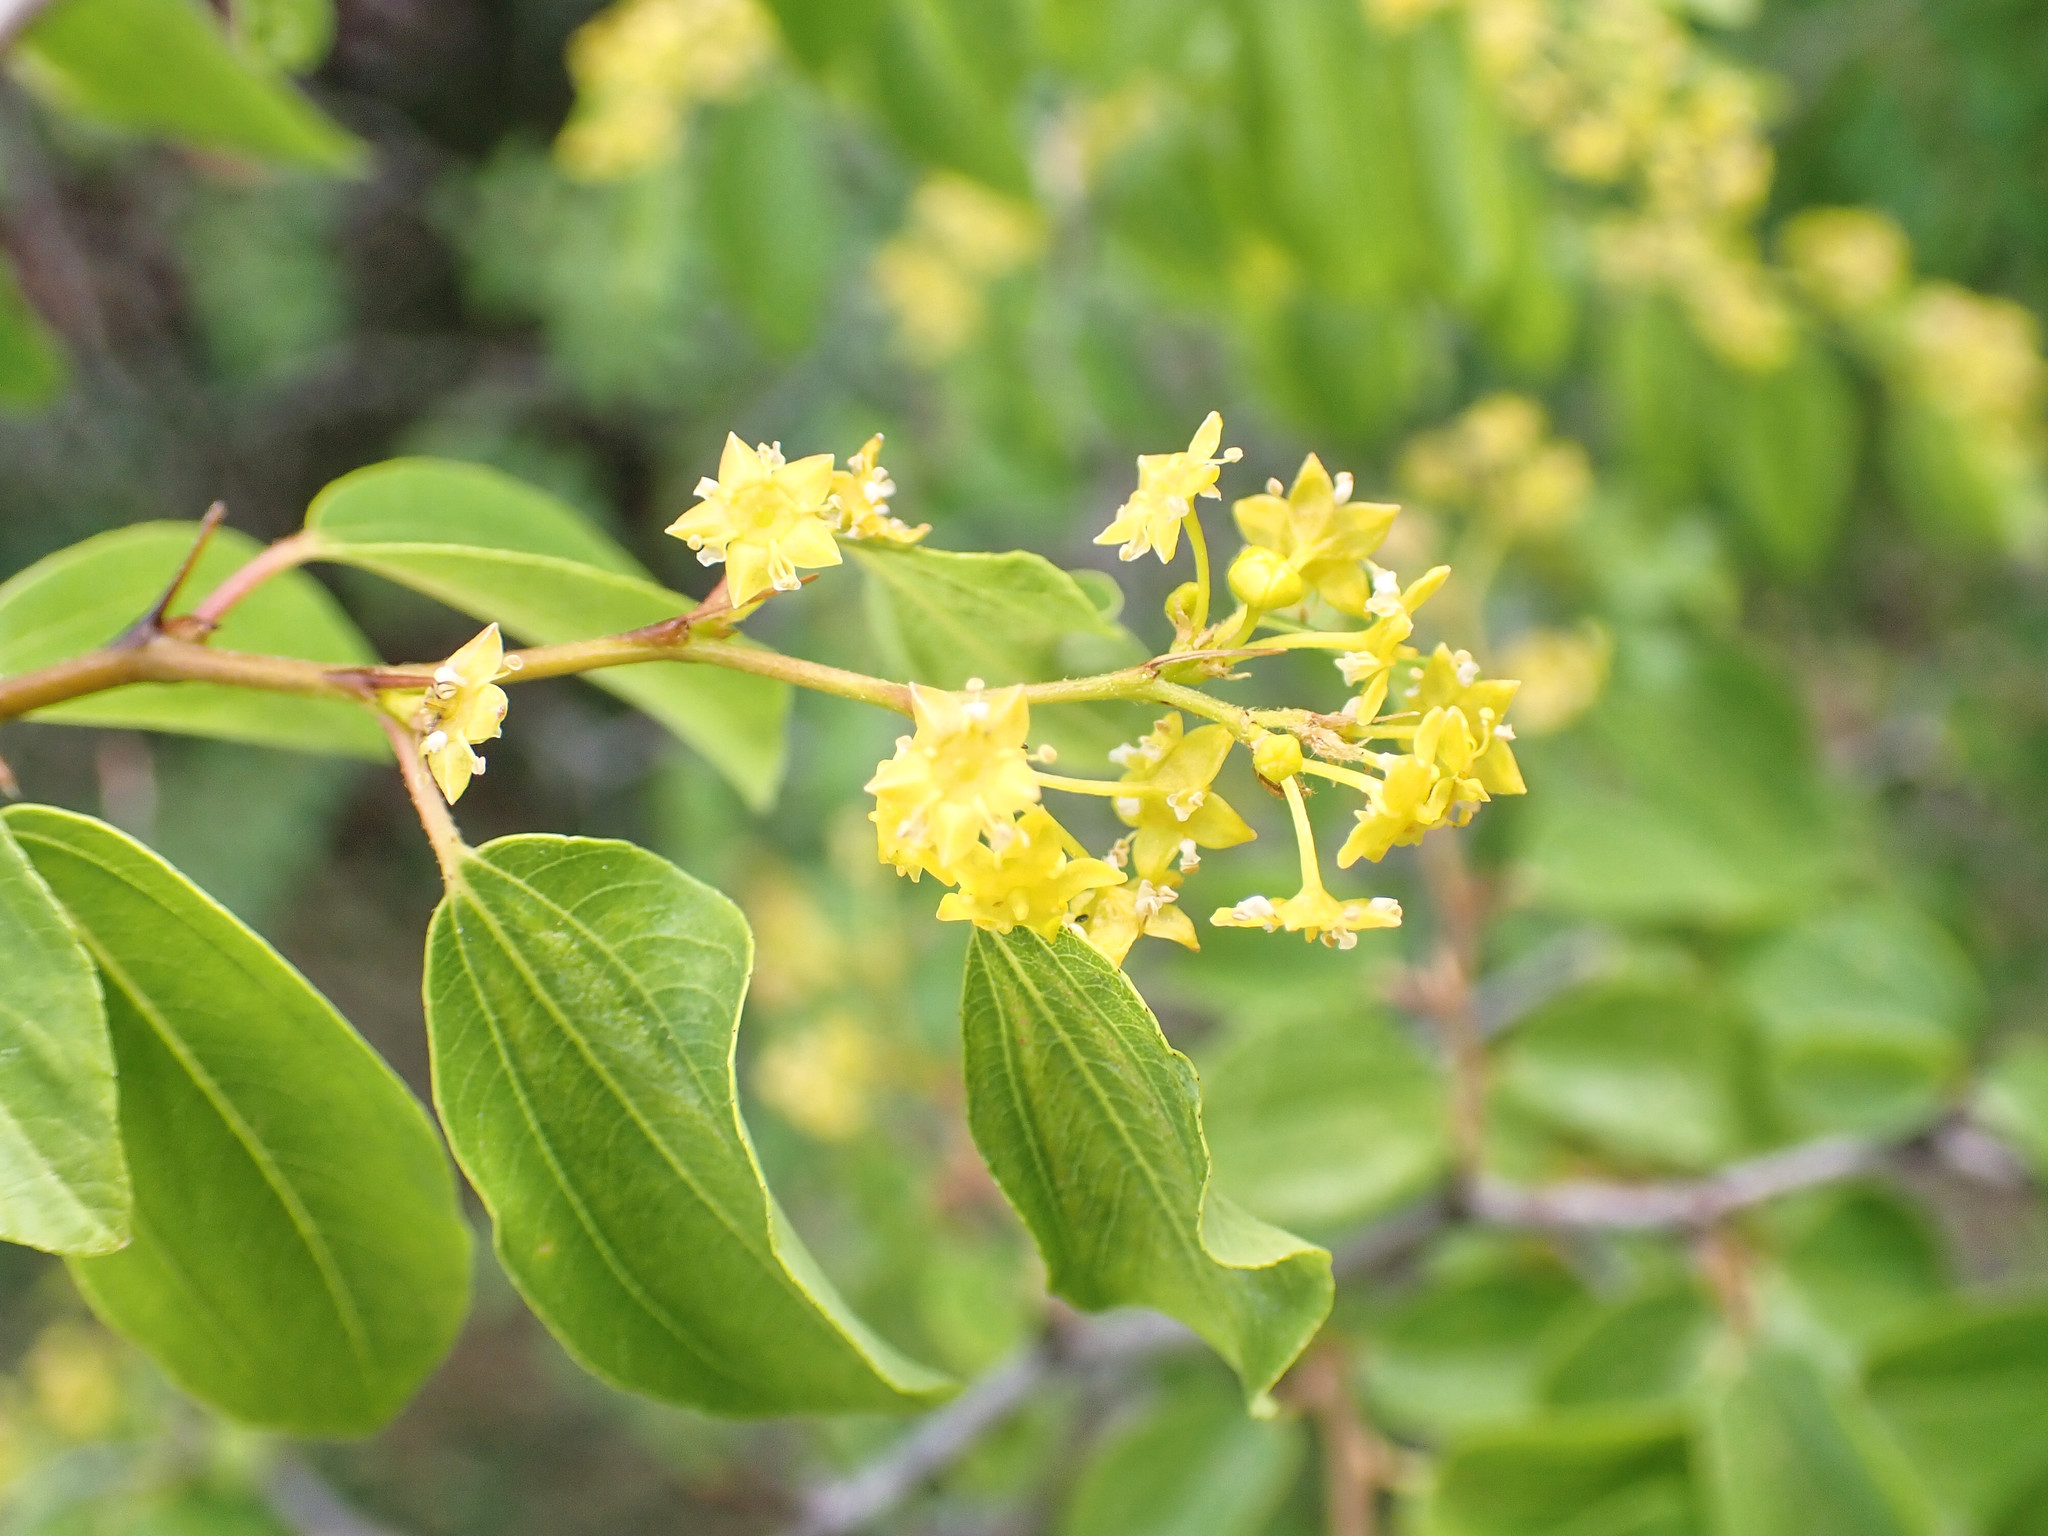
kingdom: Plantae
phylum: Tracheophyta
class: Magnoliopsida
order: Rosales
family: Rhamnaceae
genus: Paliurus
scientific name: Paliurus spina-christi
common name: Jeruselem thorn
